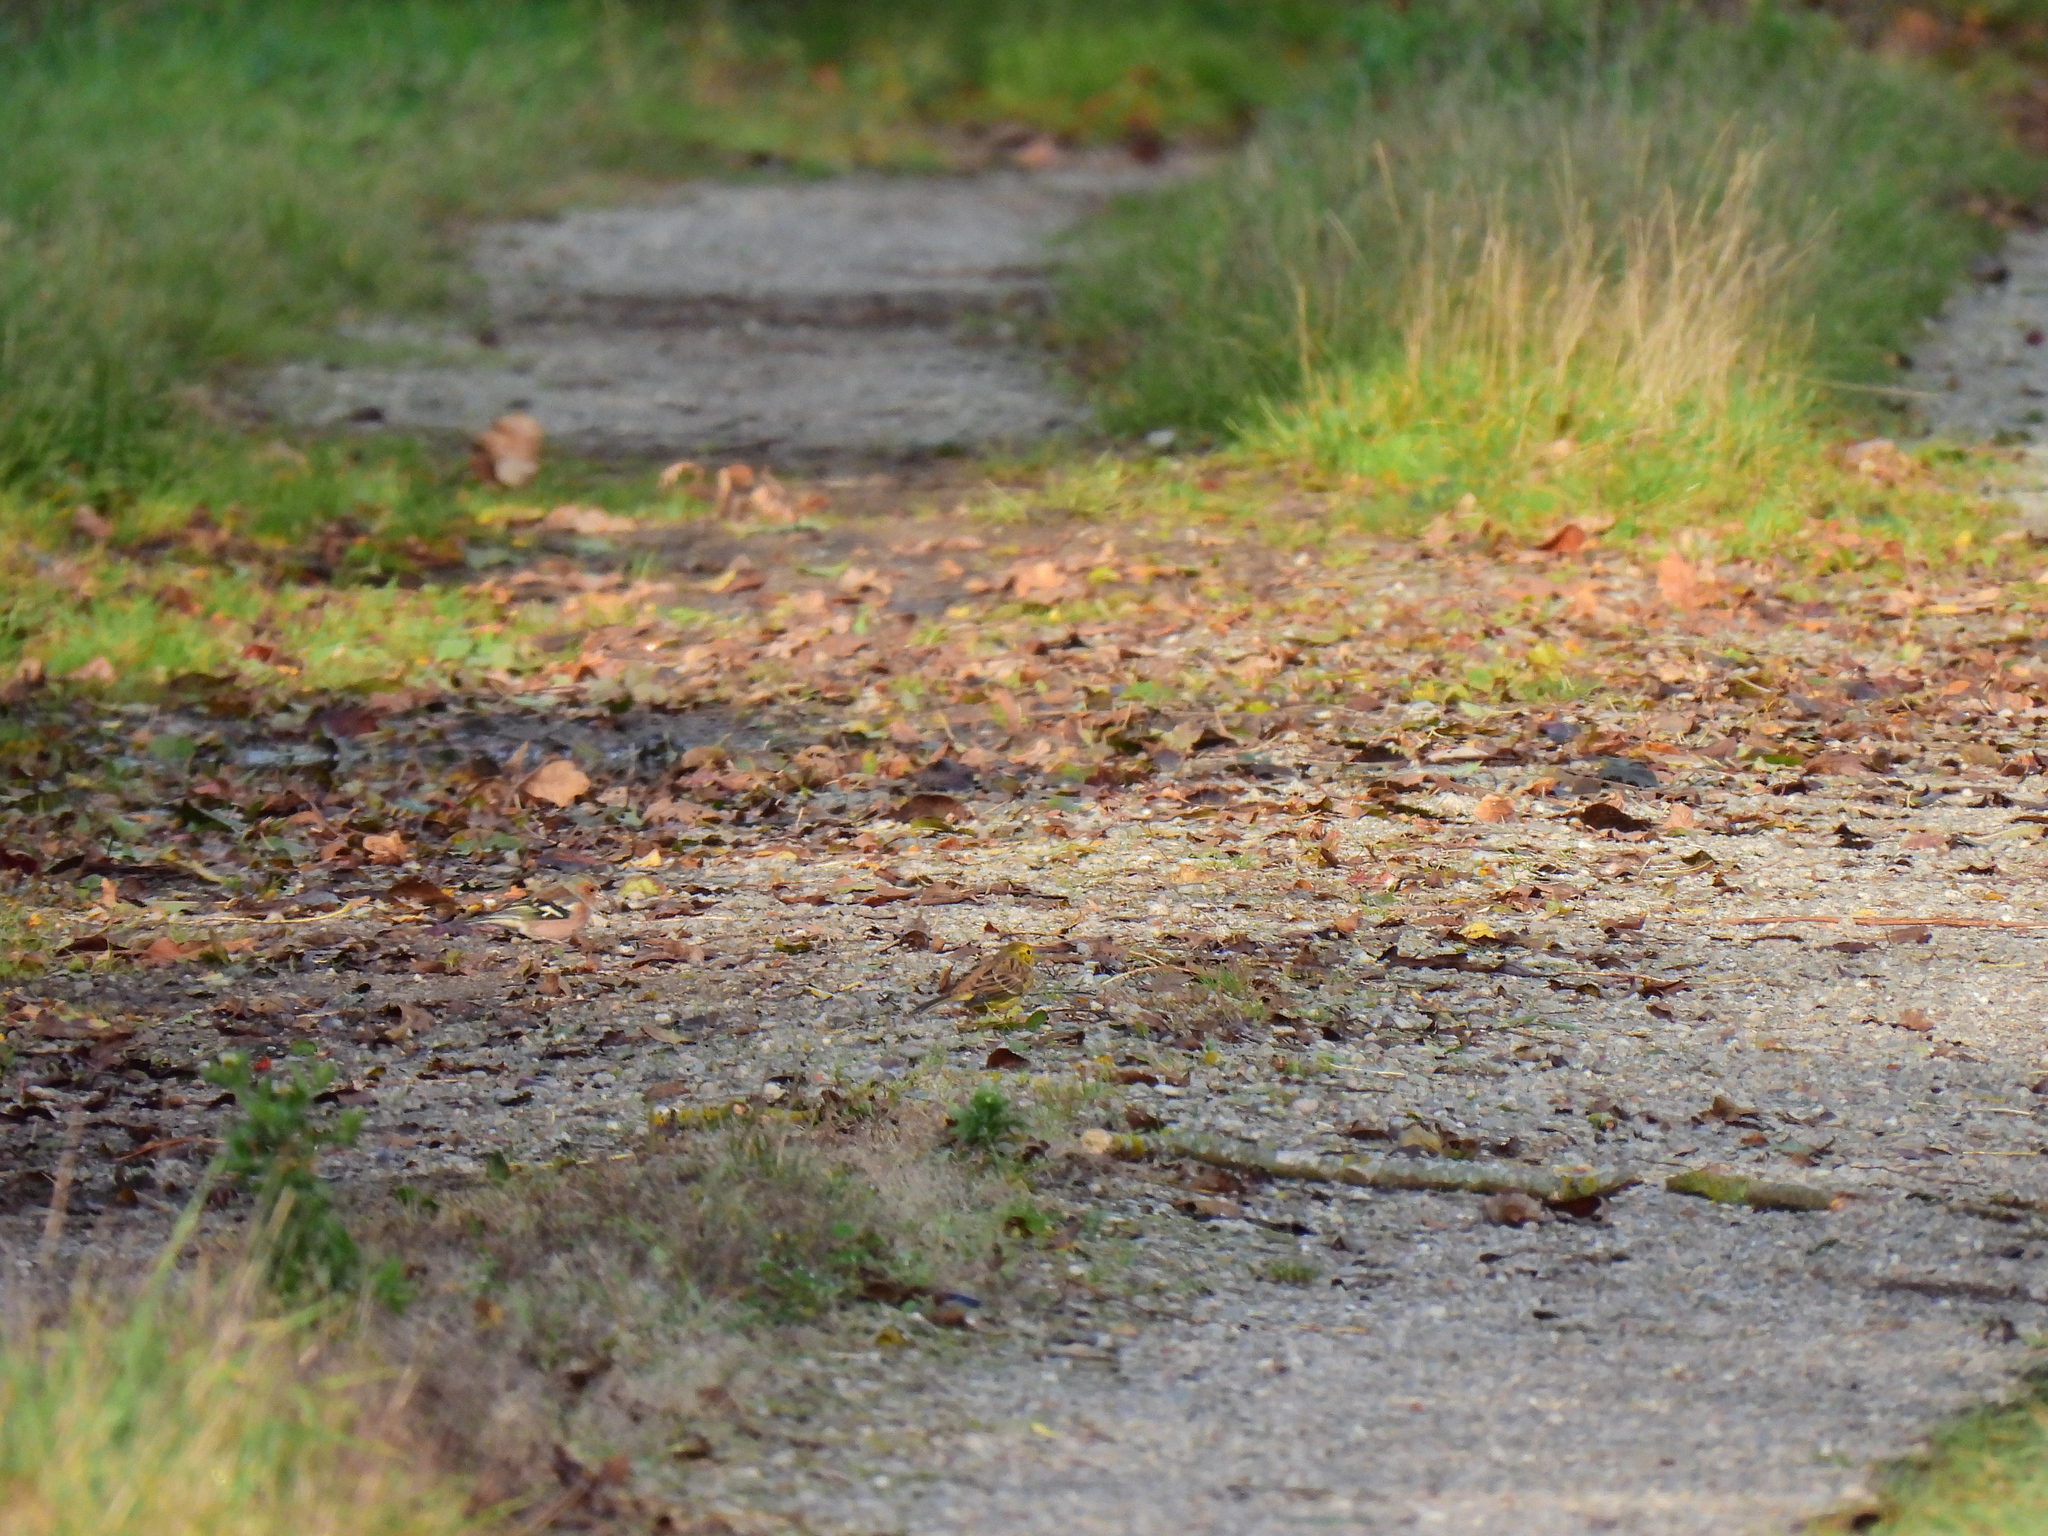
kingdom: Animalia
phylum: Chordata
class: Aves
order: Passeriformes
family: Emberizidae
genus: Emberiza
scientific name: Emberiza citrinella
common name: Yellowhammer
